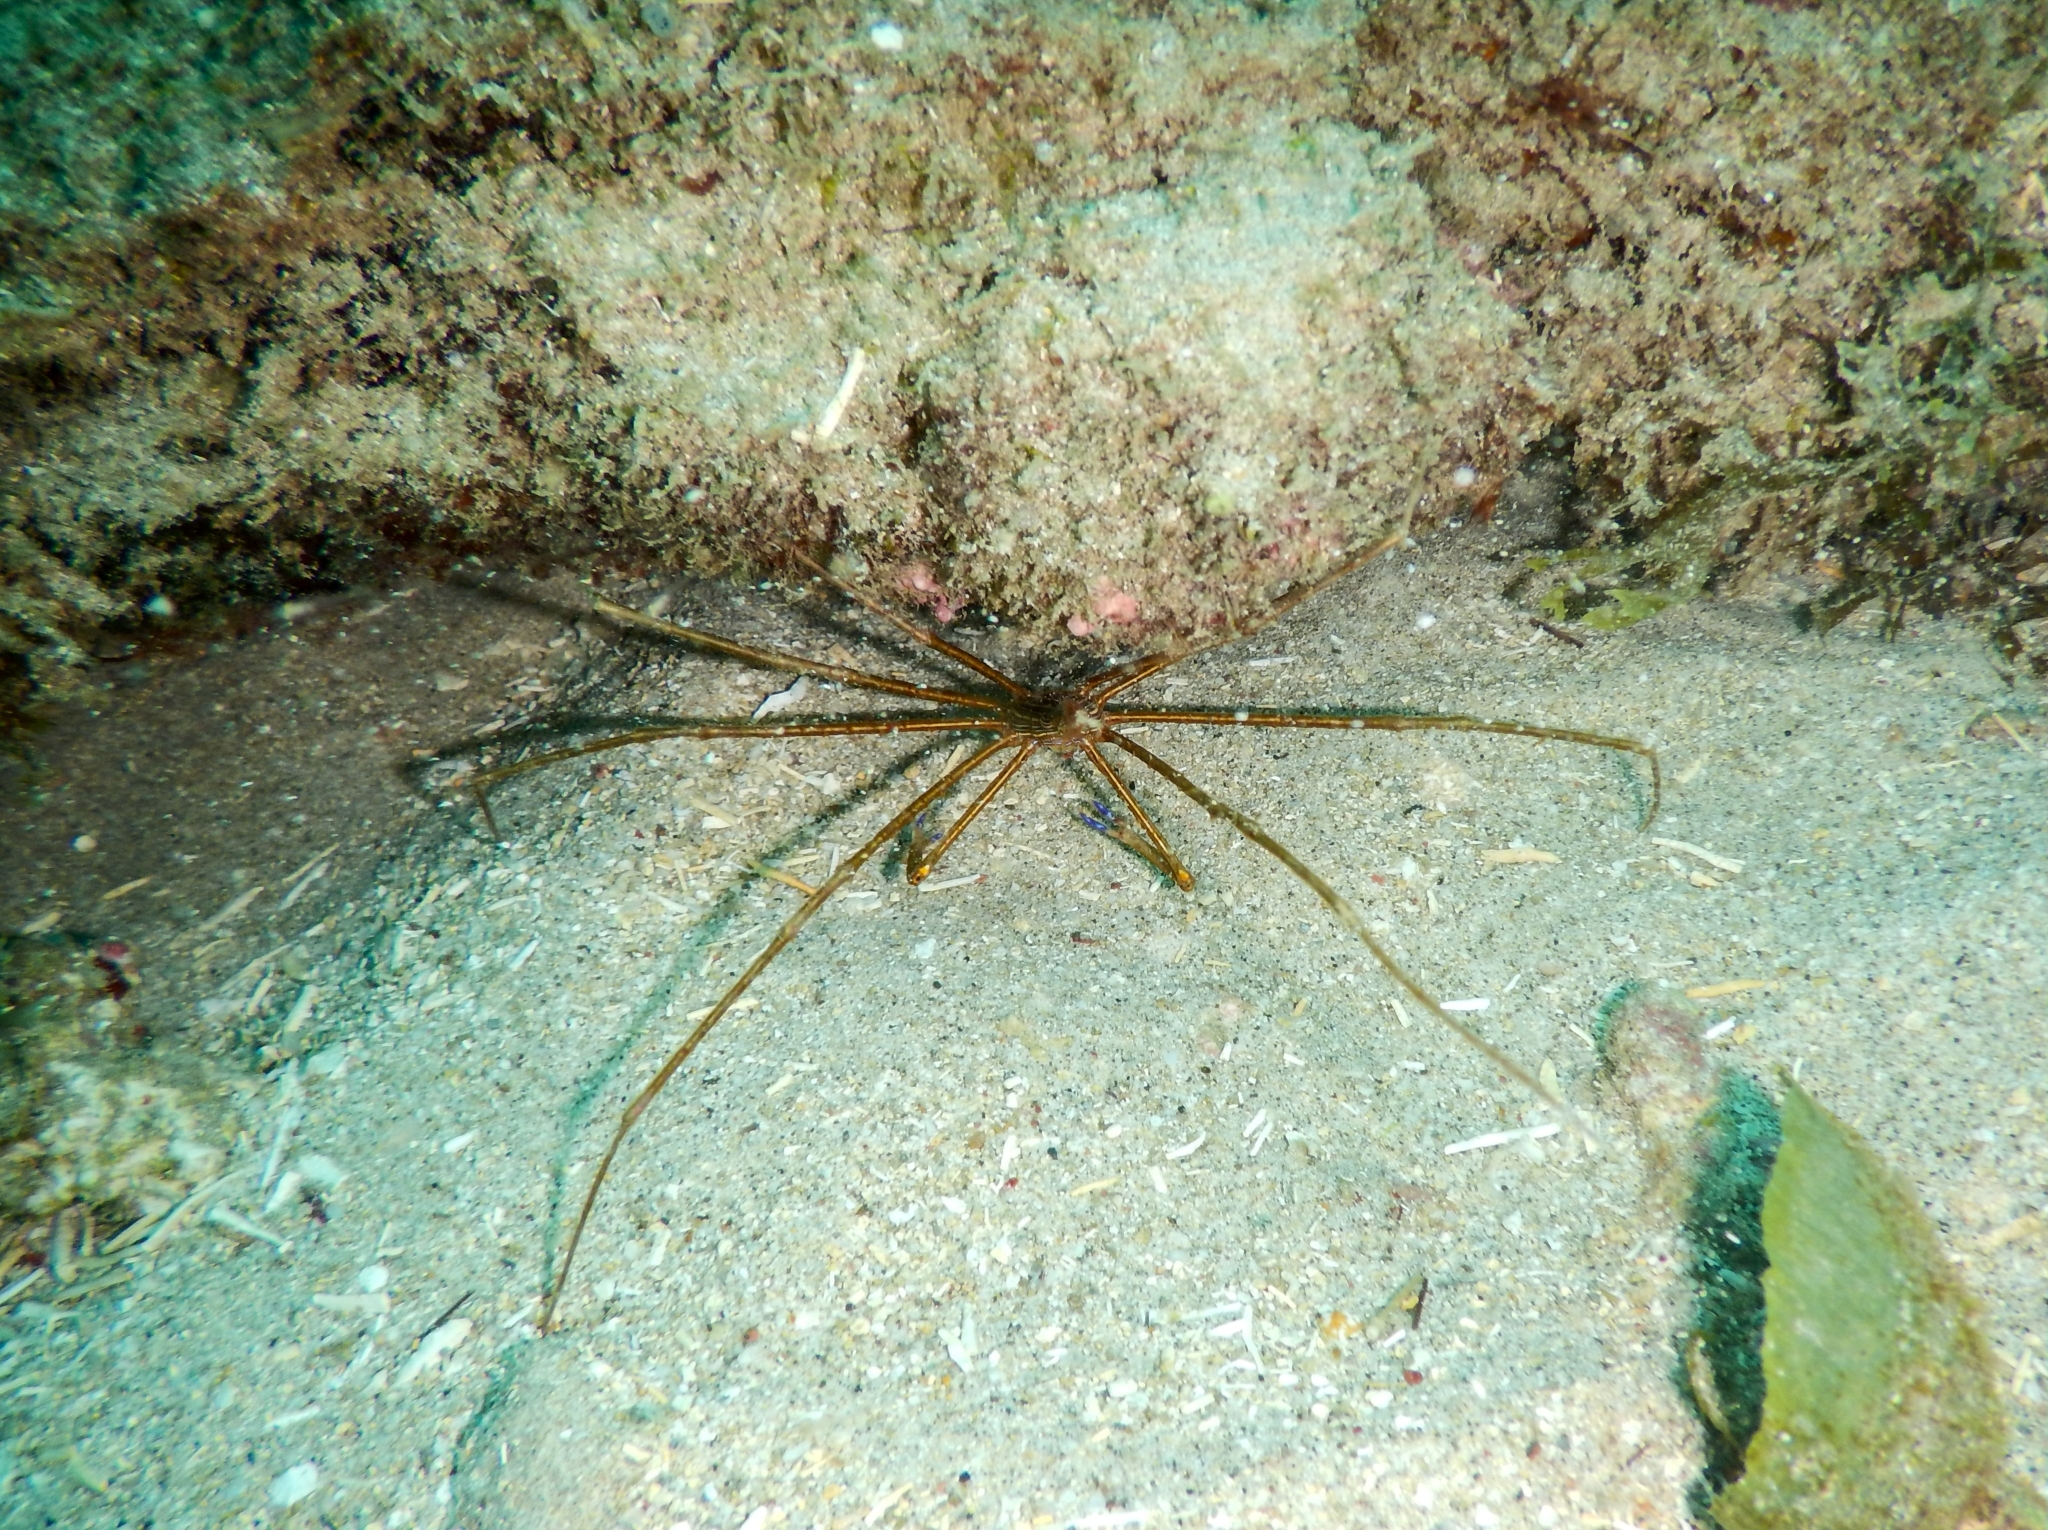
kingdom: Animalia
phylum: Arthropoda
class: Malacostraca
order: Decapoda
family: Inachoididae
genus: Stenorhynchus
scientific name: Stenorhynchus seticornis
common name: Arrow crab
